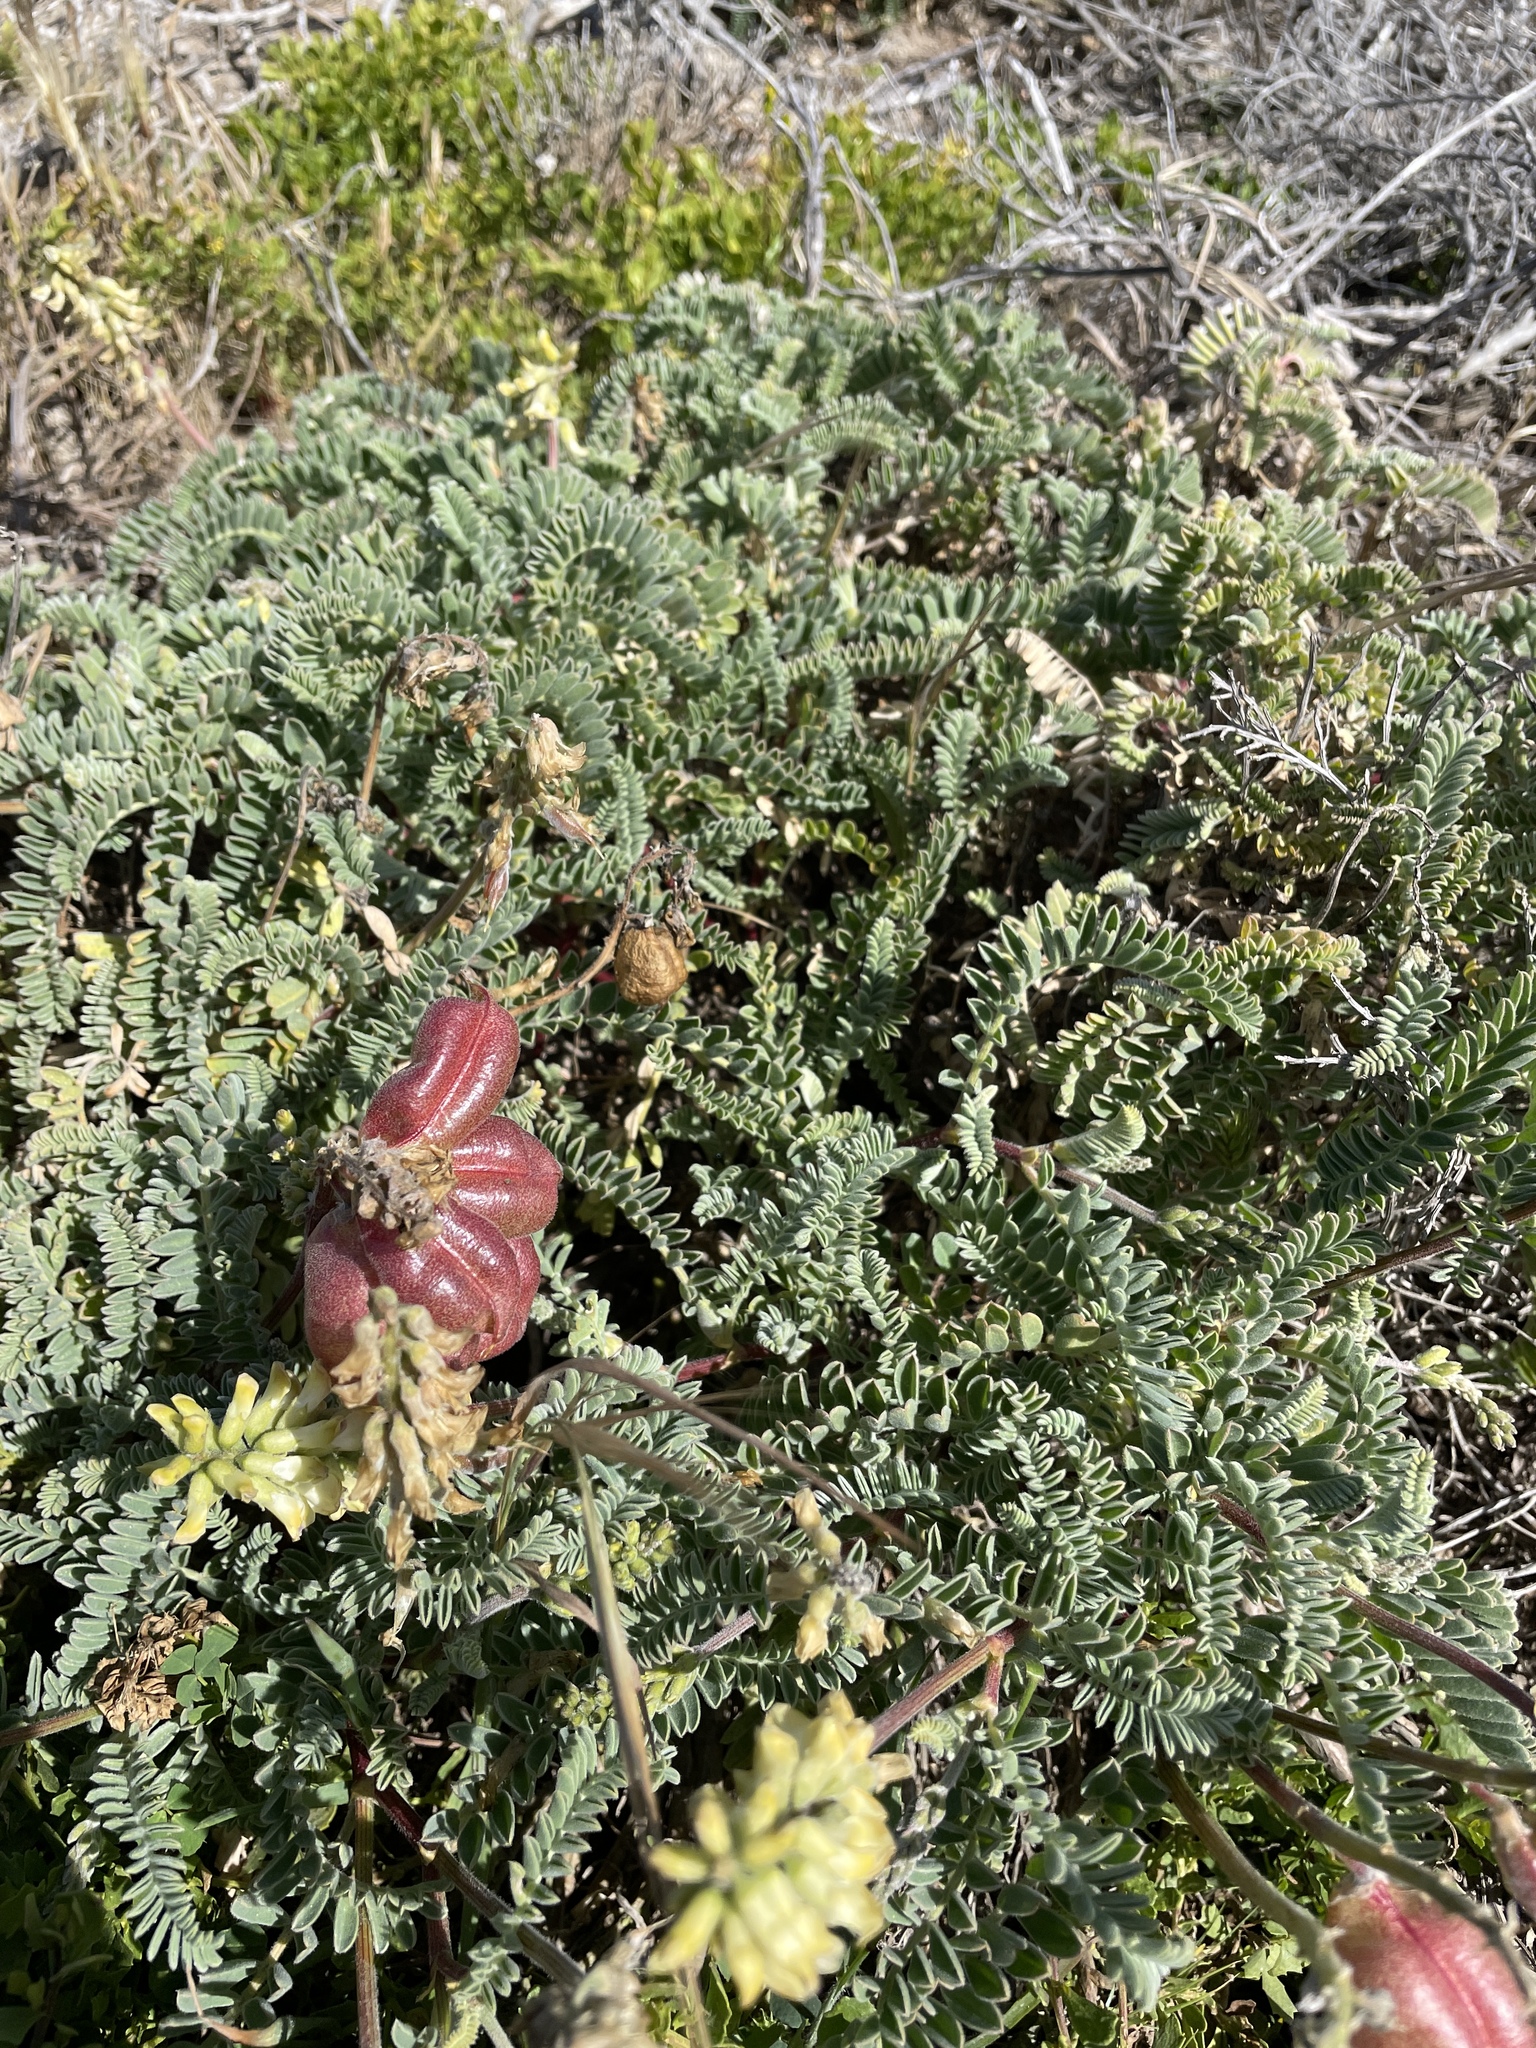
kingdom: Plantae
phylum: Tracheophyta
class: Magnoliopsida
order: Fabales
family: Fabaceae
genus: Astragalus
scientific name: Astragalus nuttallii
